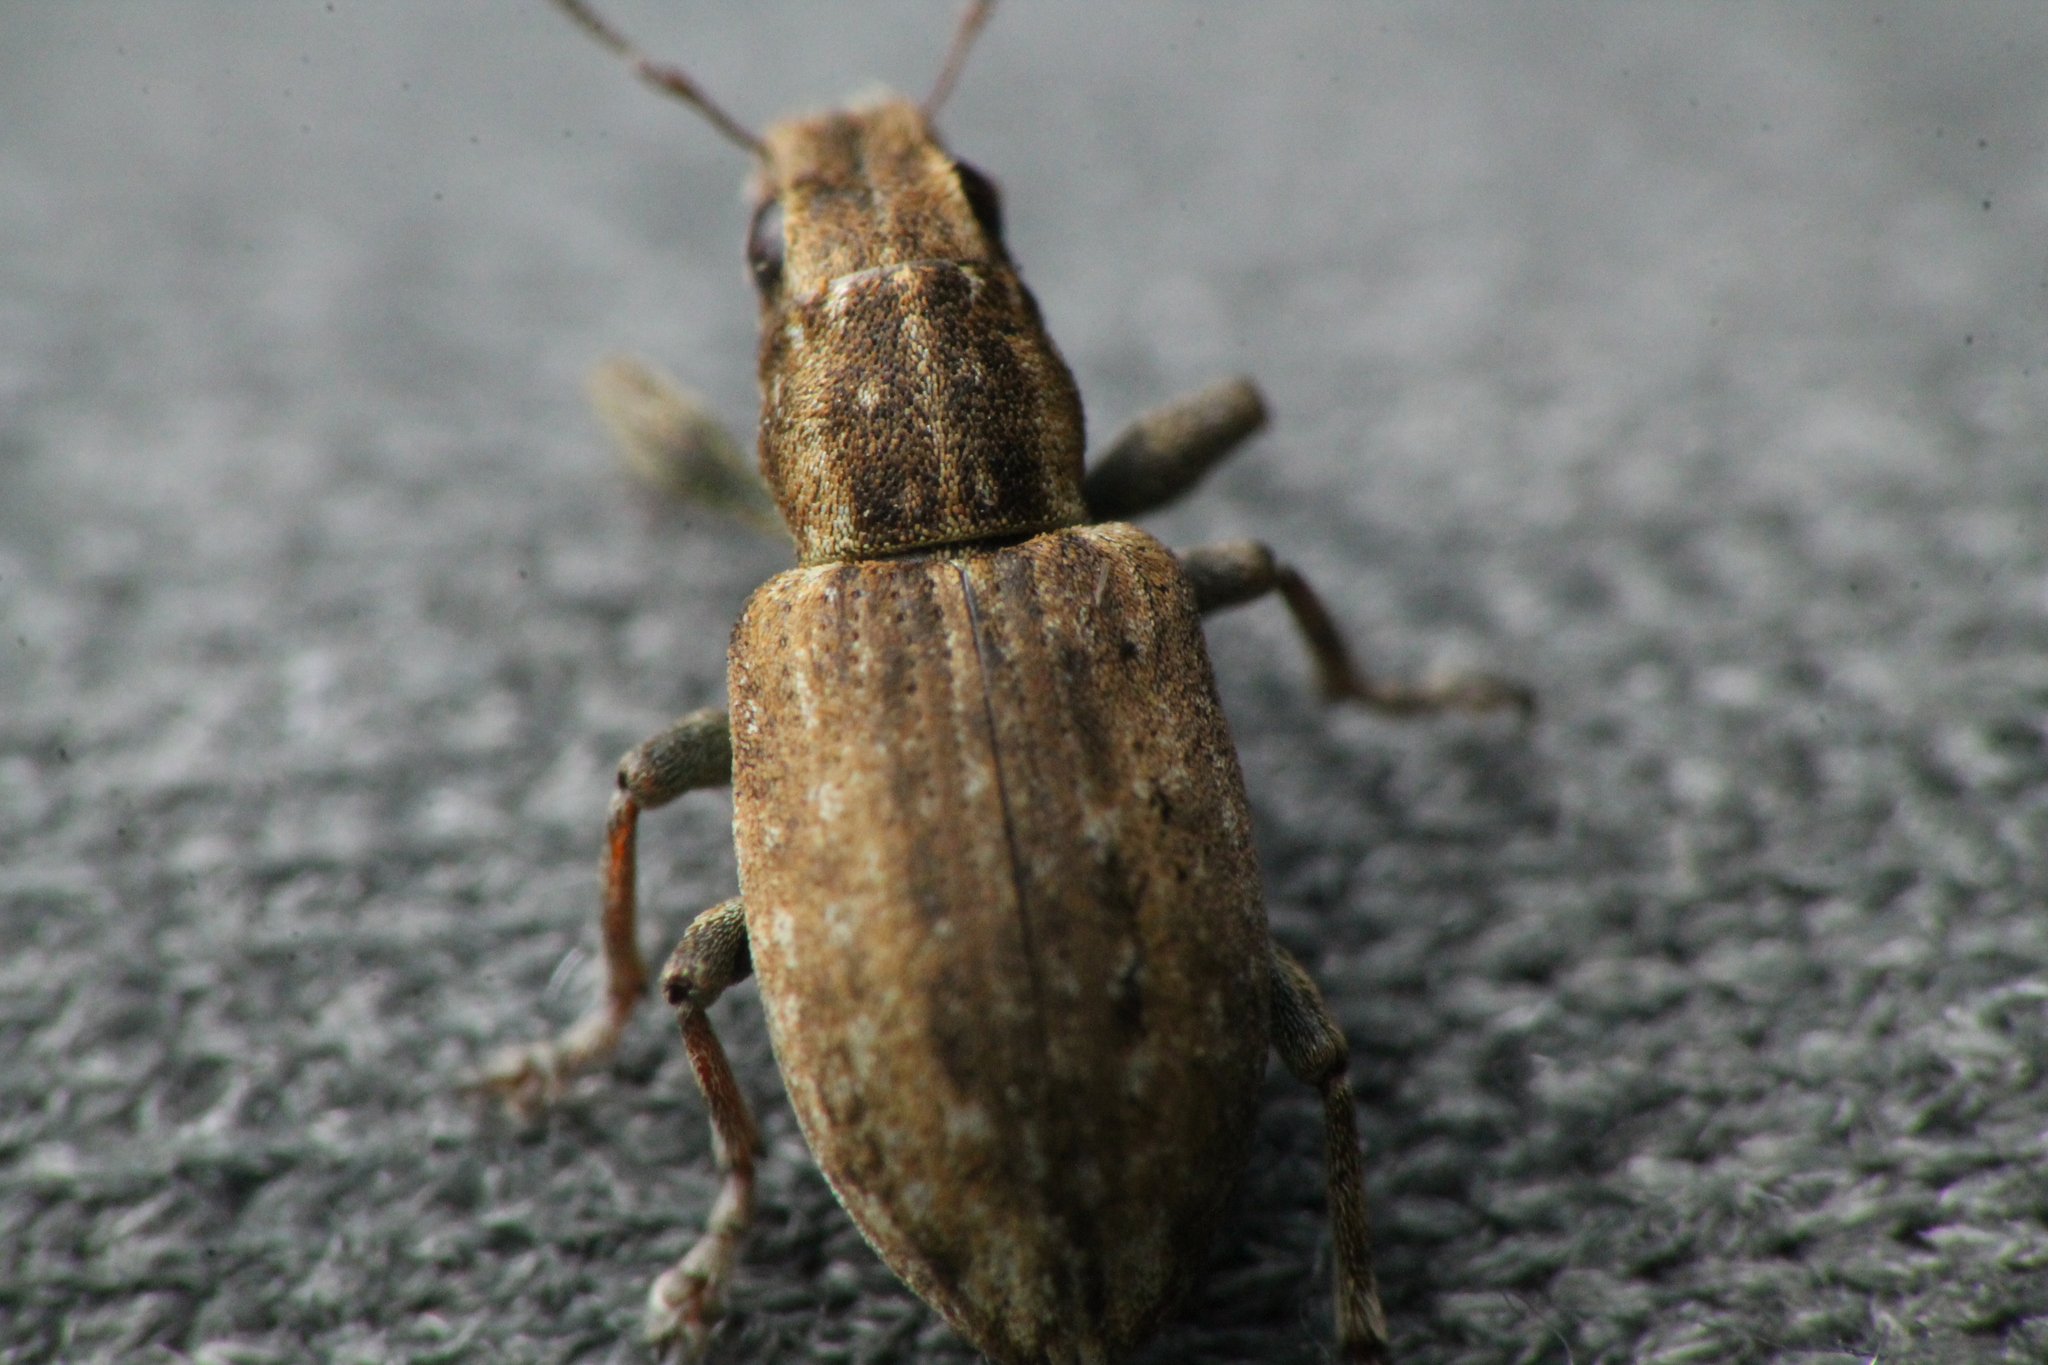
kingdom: Animalia
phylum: Arthropoda
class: Insecta
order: Coleoptera
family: Curculionidae
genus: Sitona
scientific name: Sitona obsoletus
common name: Weevil
